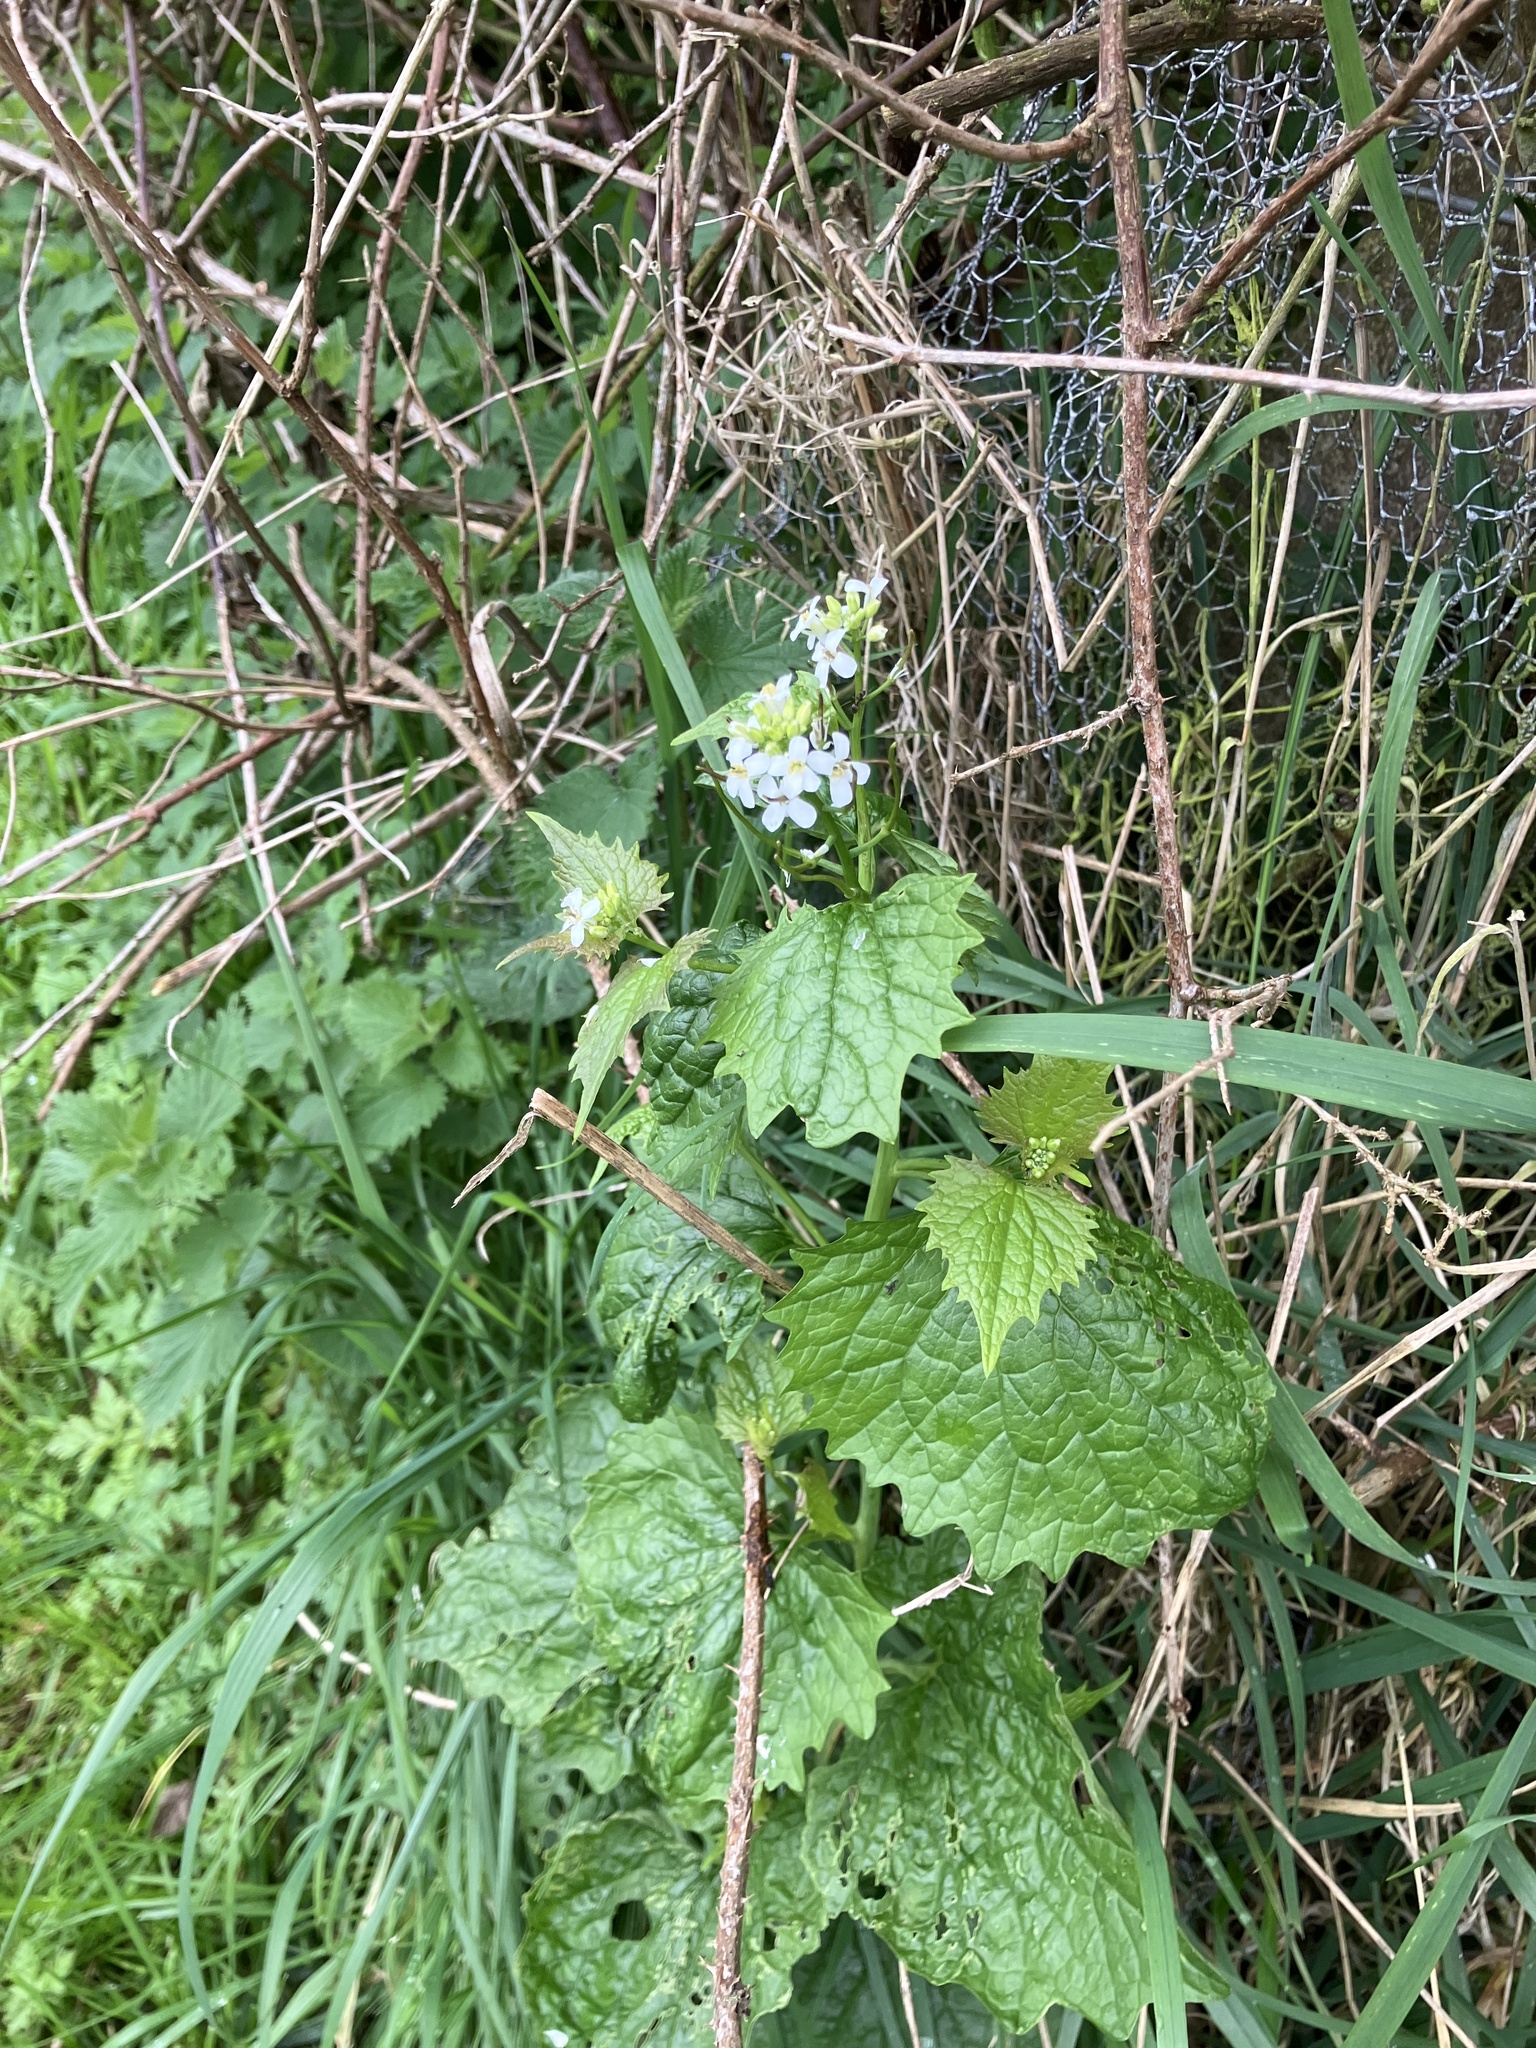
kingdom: Plantae
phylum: Tracheophyta
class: Magnoliopsida
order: Brassicales
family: Brassicaceae
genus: Alliaria
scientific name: Alliaria petiolata
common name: Garlic mustard
